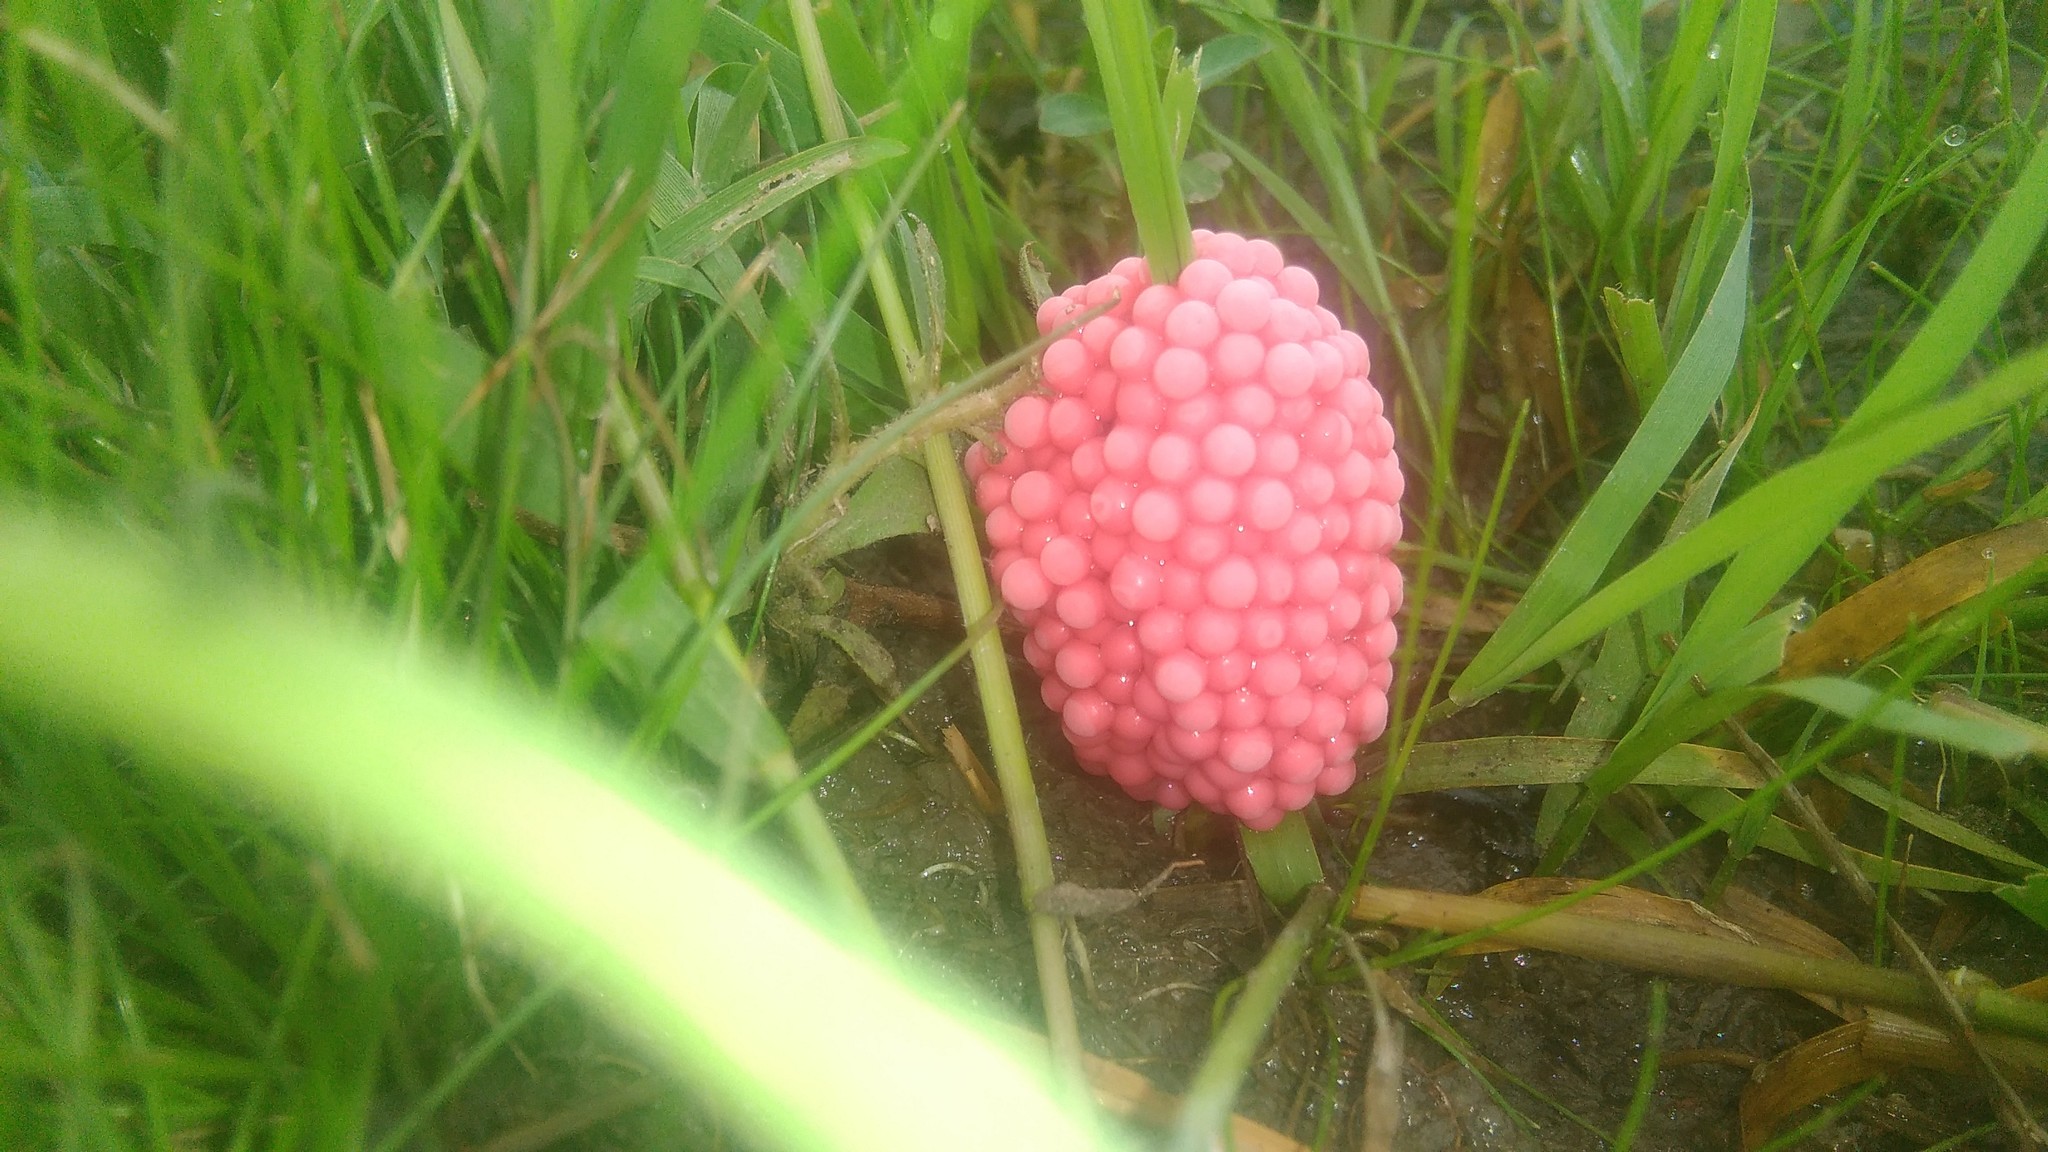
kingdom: Animalia
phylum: Mollusca
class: Gastropoda
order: Architaenioglossa
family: Ampullariidae
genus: Pomacea
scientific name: Pomacea canaliculata
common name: Channeled applesnail
